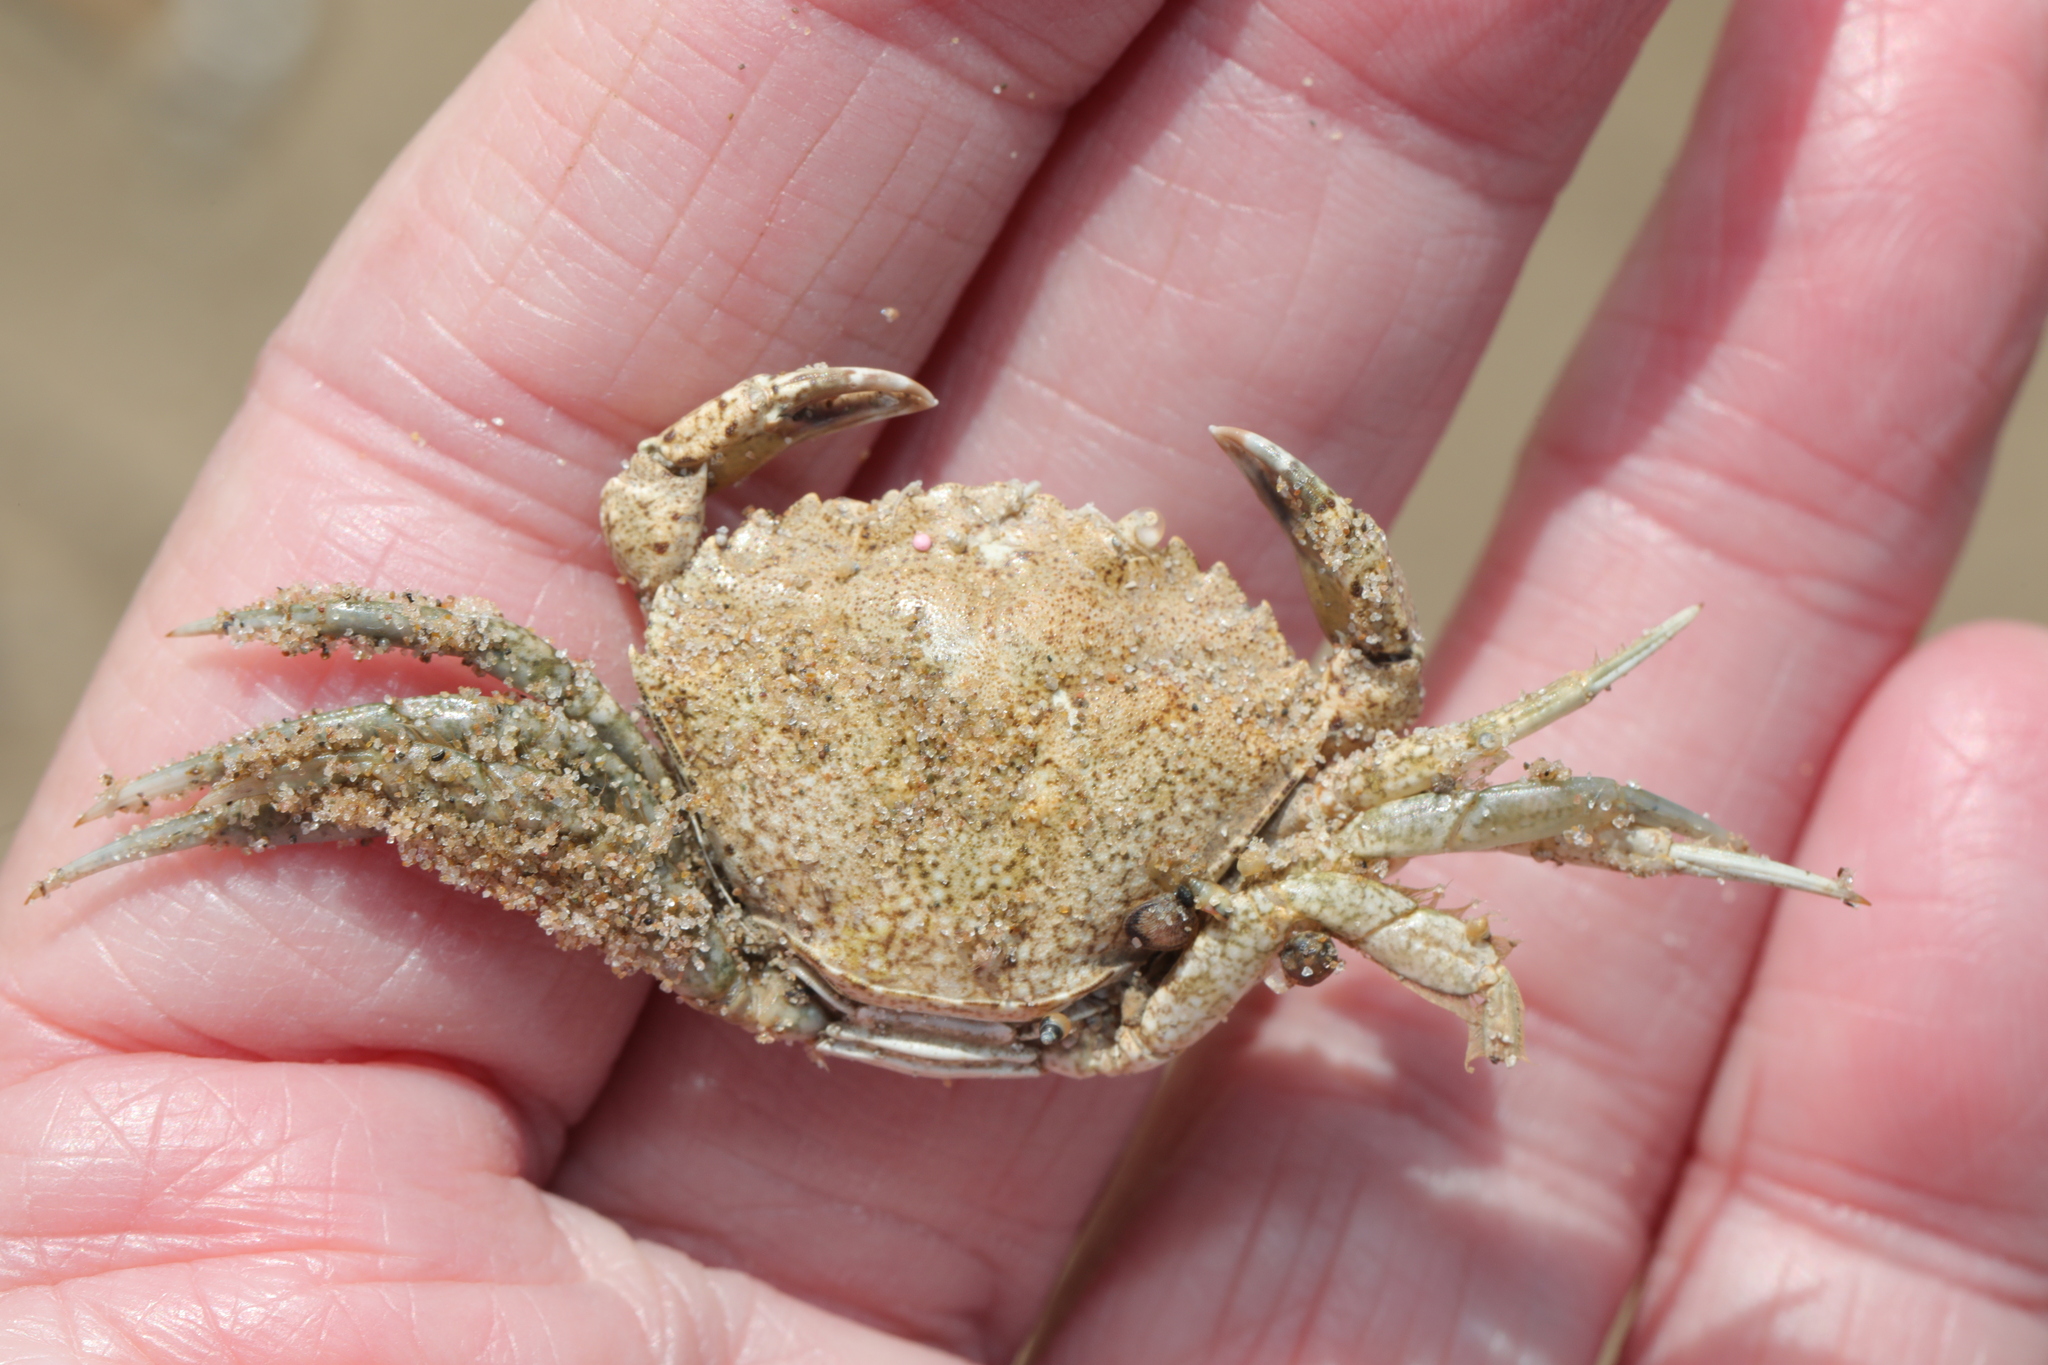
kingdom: Animalia
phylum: Arthropoda
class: Malacostraca
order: Decapoda
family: Carcinidae
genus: Carcinus
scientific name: Carcinus maenas
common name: European green crab
